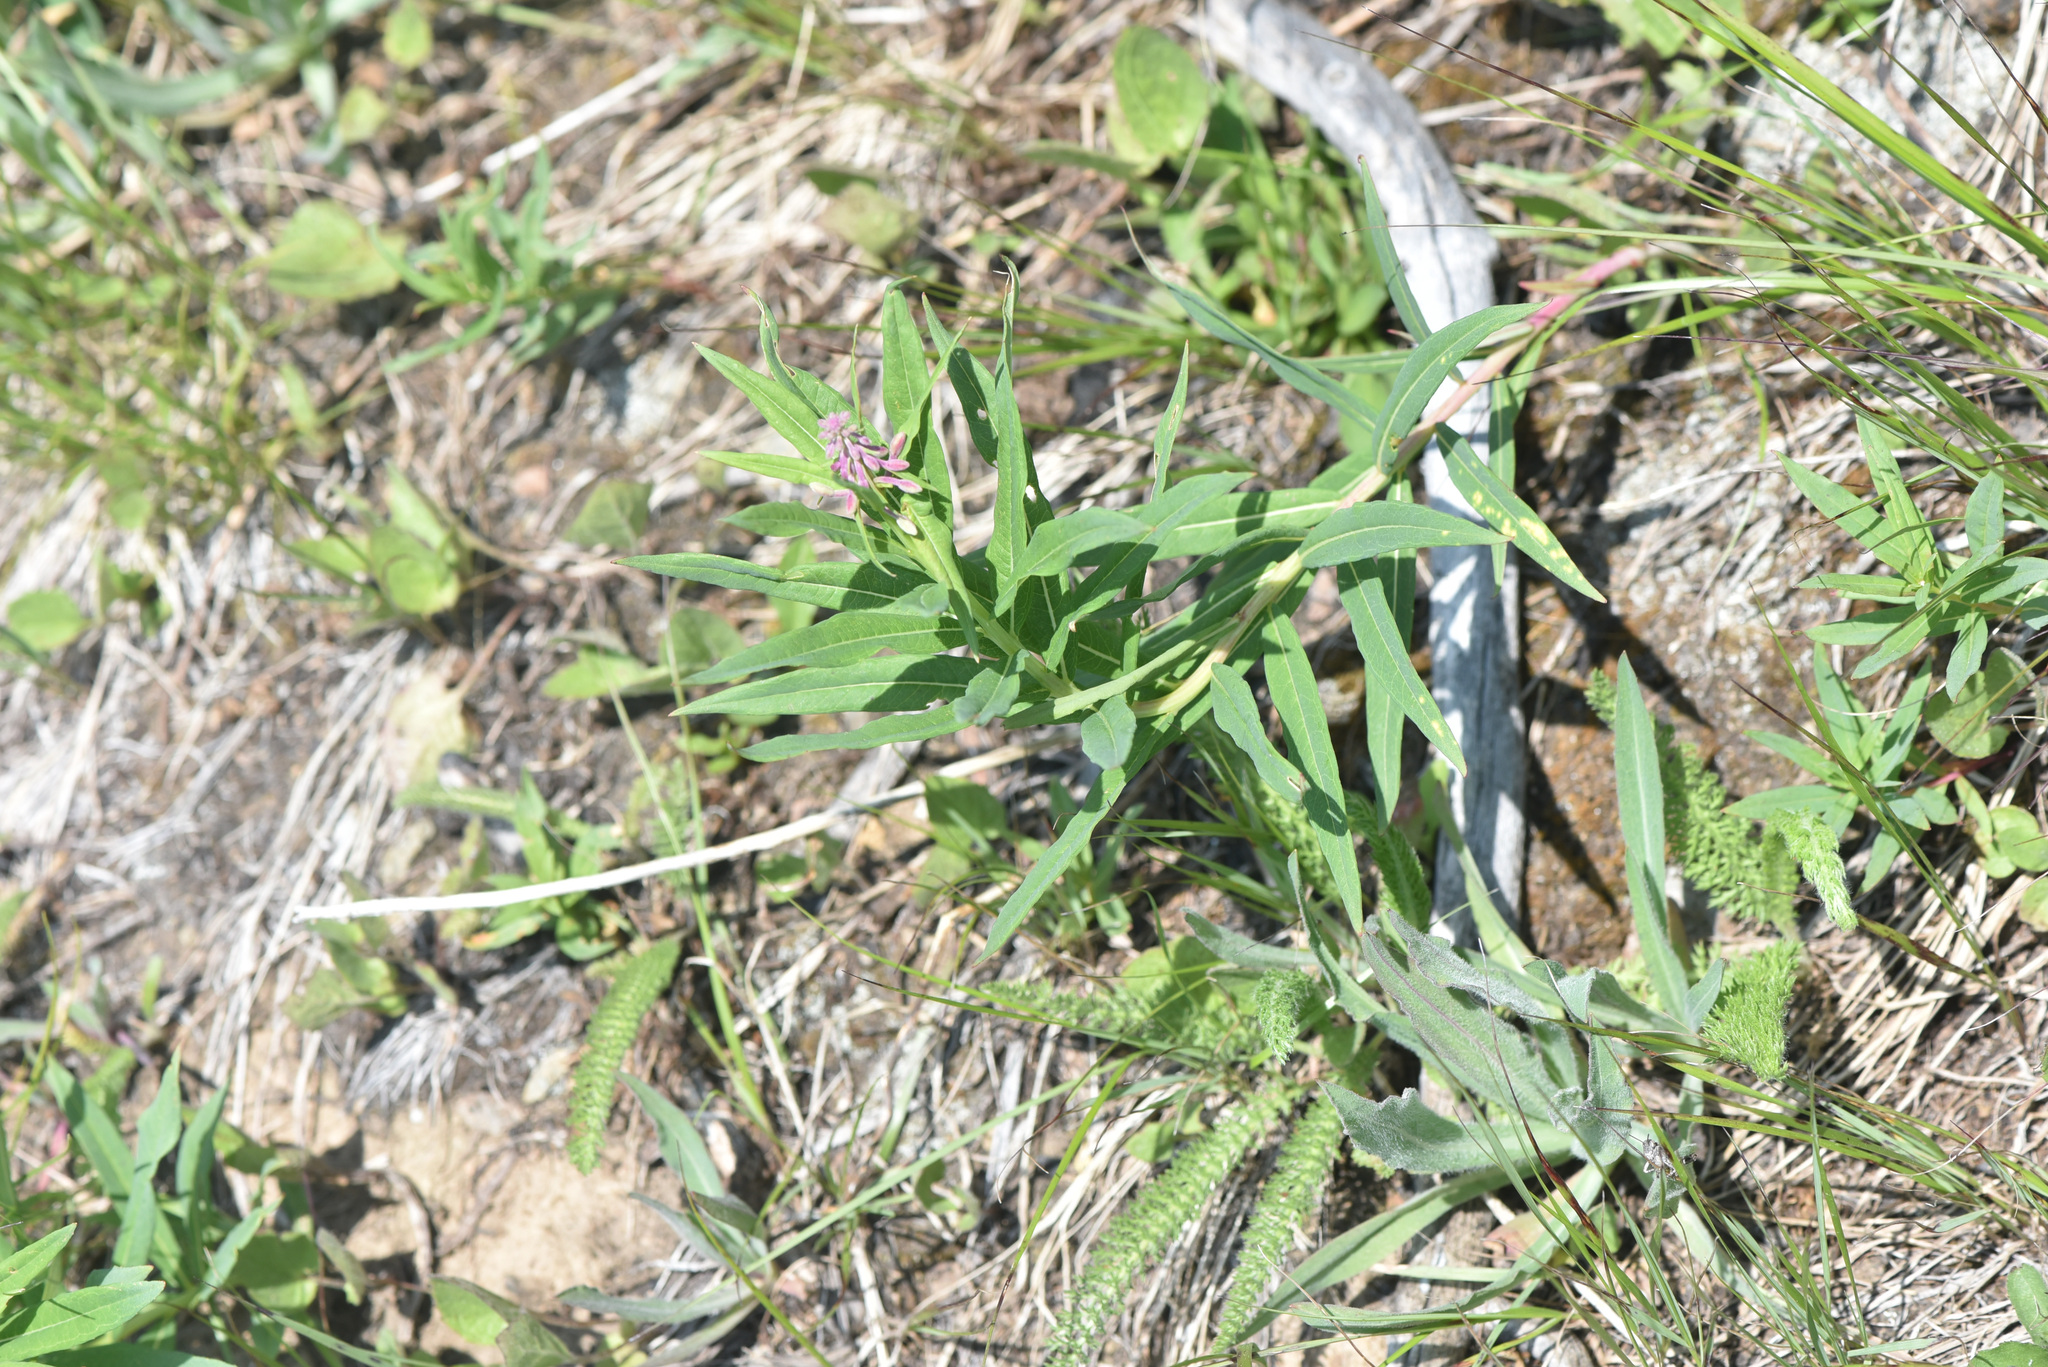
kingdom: Plantae
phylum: Tracheophyta
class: Magnoliopsida
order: Myrtales
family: Onagraceae
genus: Chamaenerion
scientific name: Chamaenerion angustifolium
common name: Fireweed
